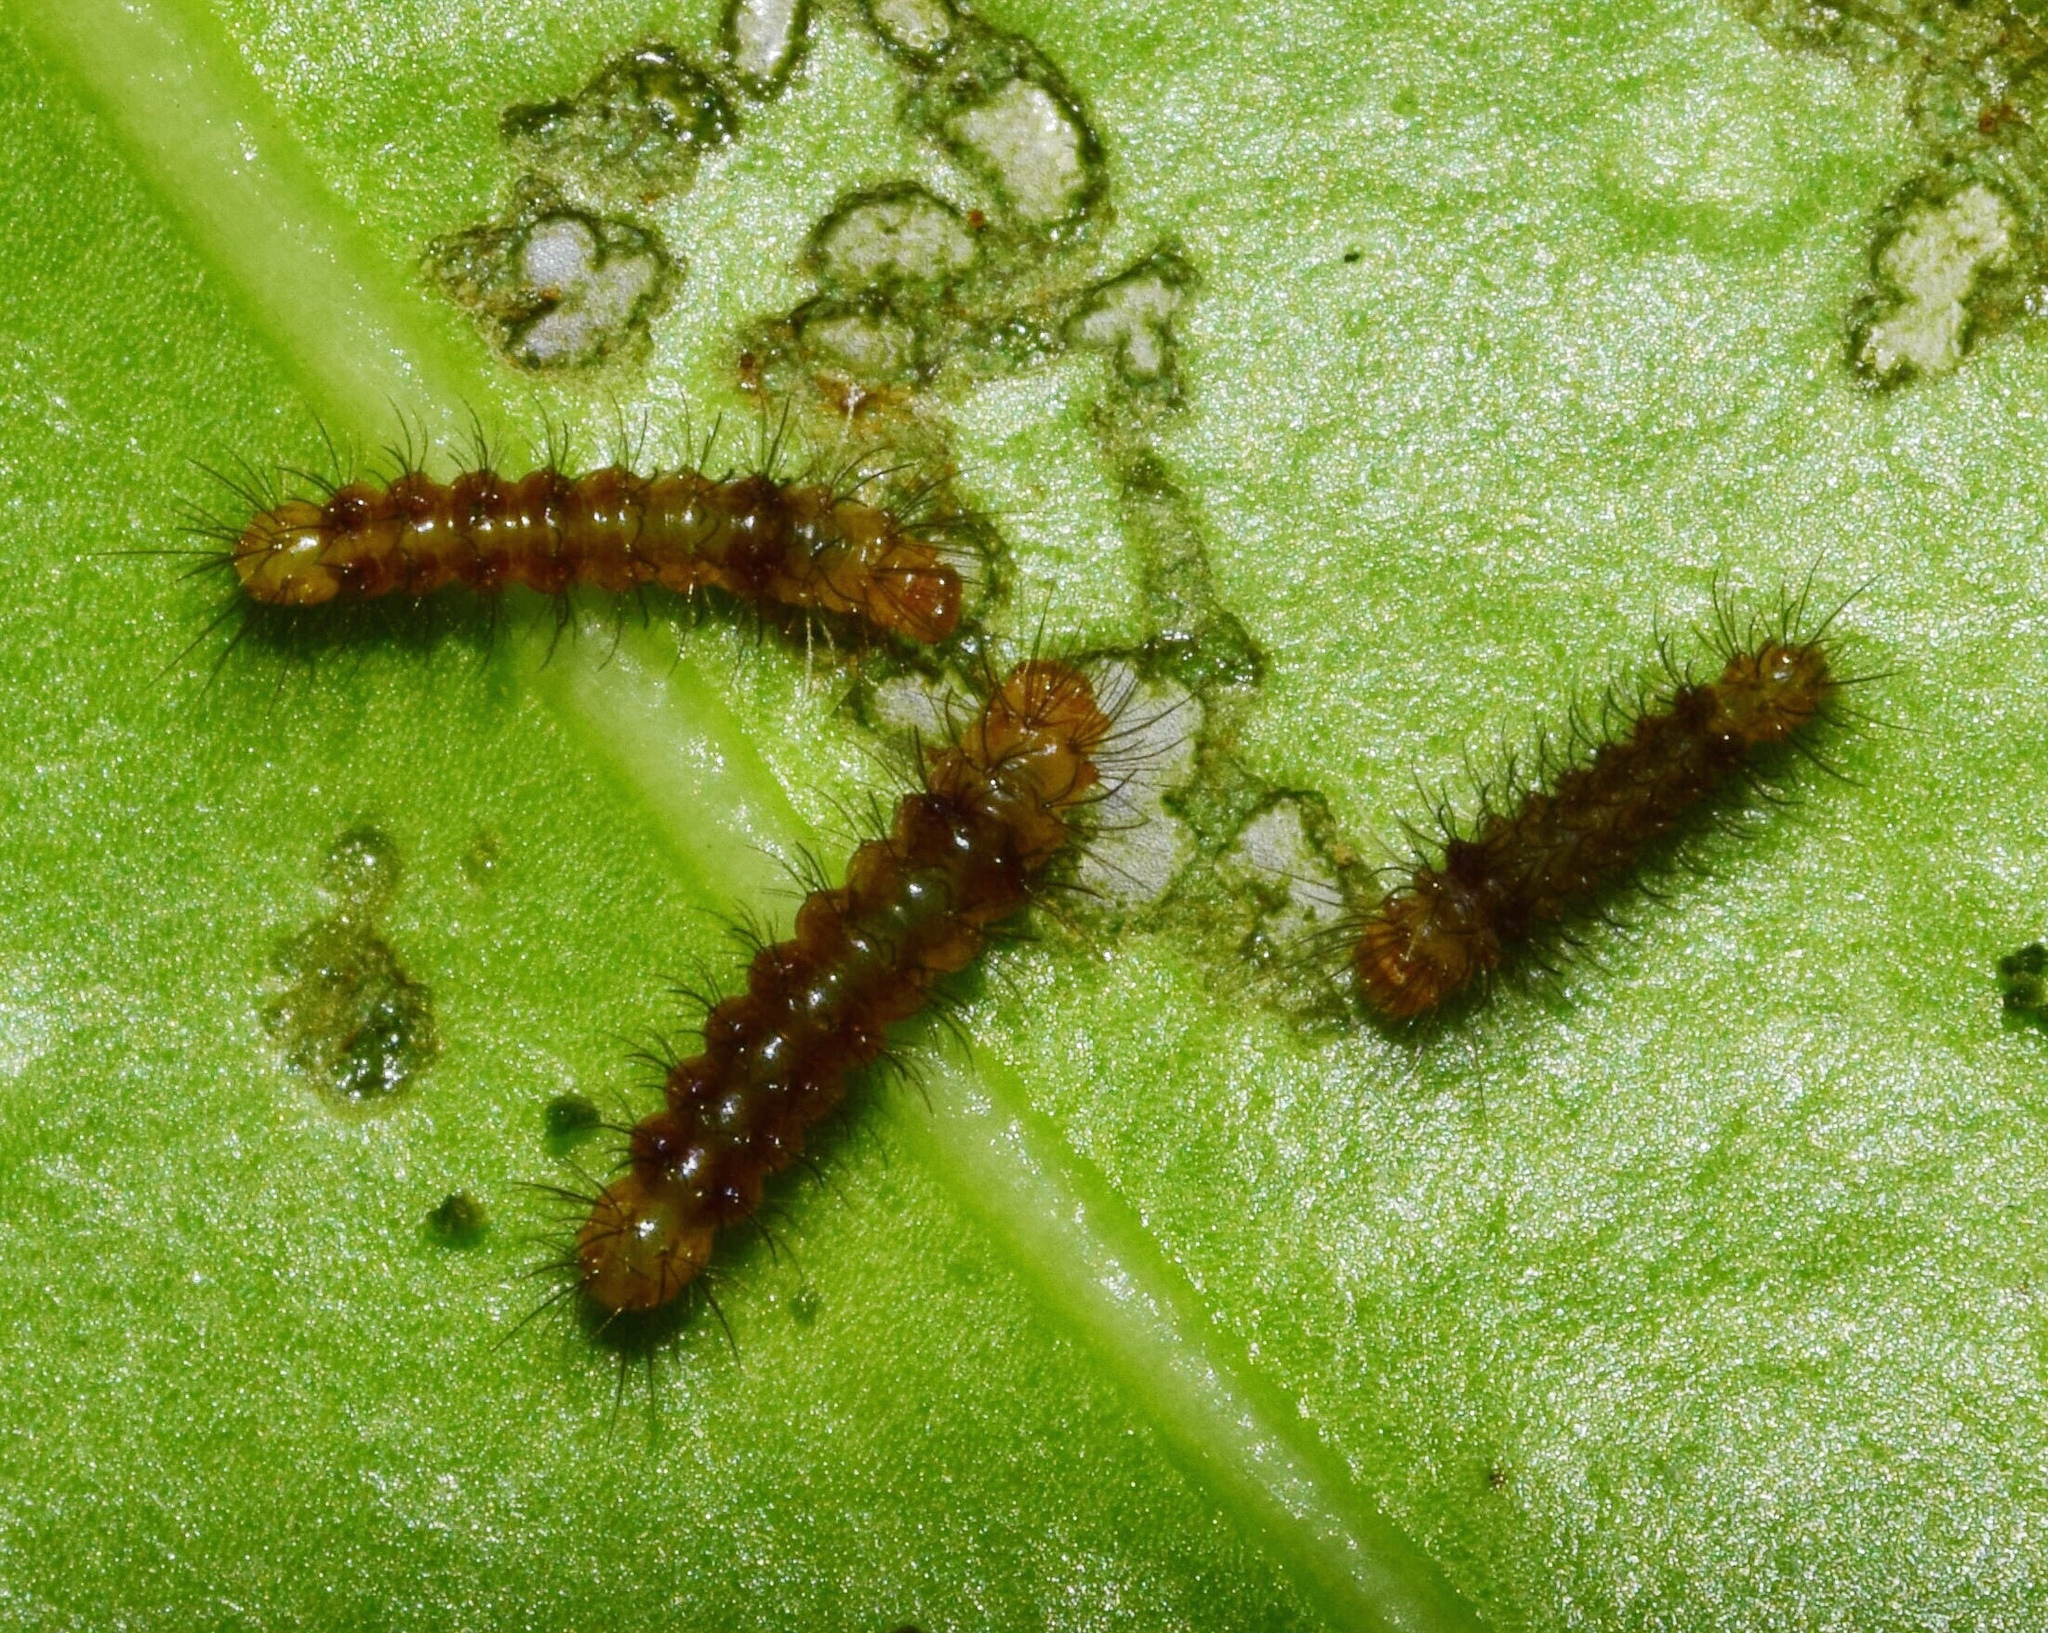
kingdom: Animalia
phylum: Arthropoda
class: Insecta
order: Lepidoptera
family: Erebidae
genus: Ustjuzhania
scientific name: Ustjuzhania lineata
